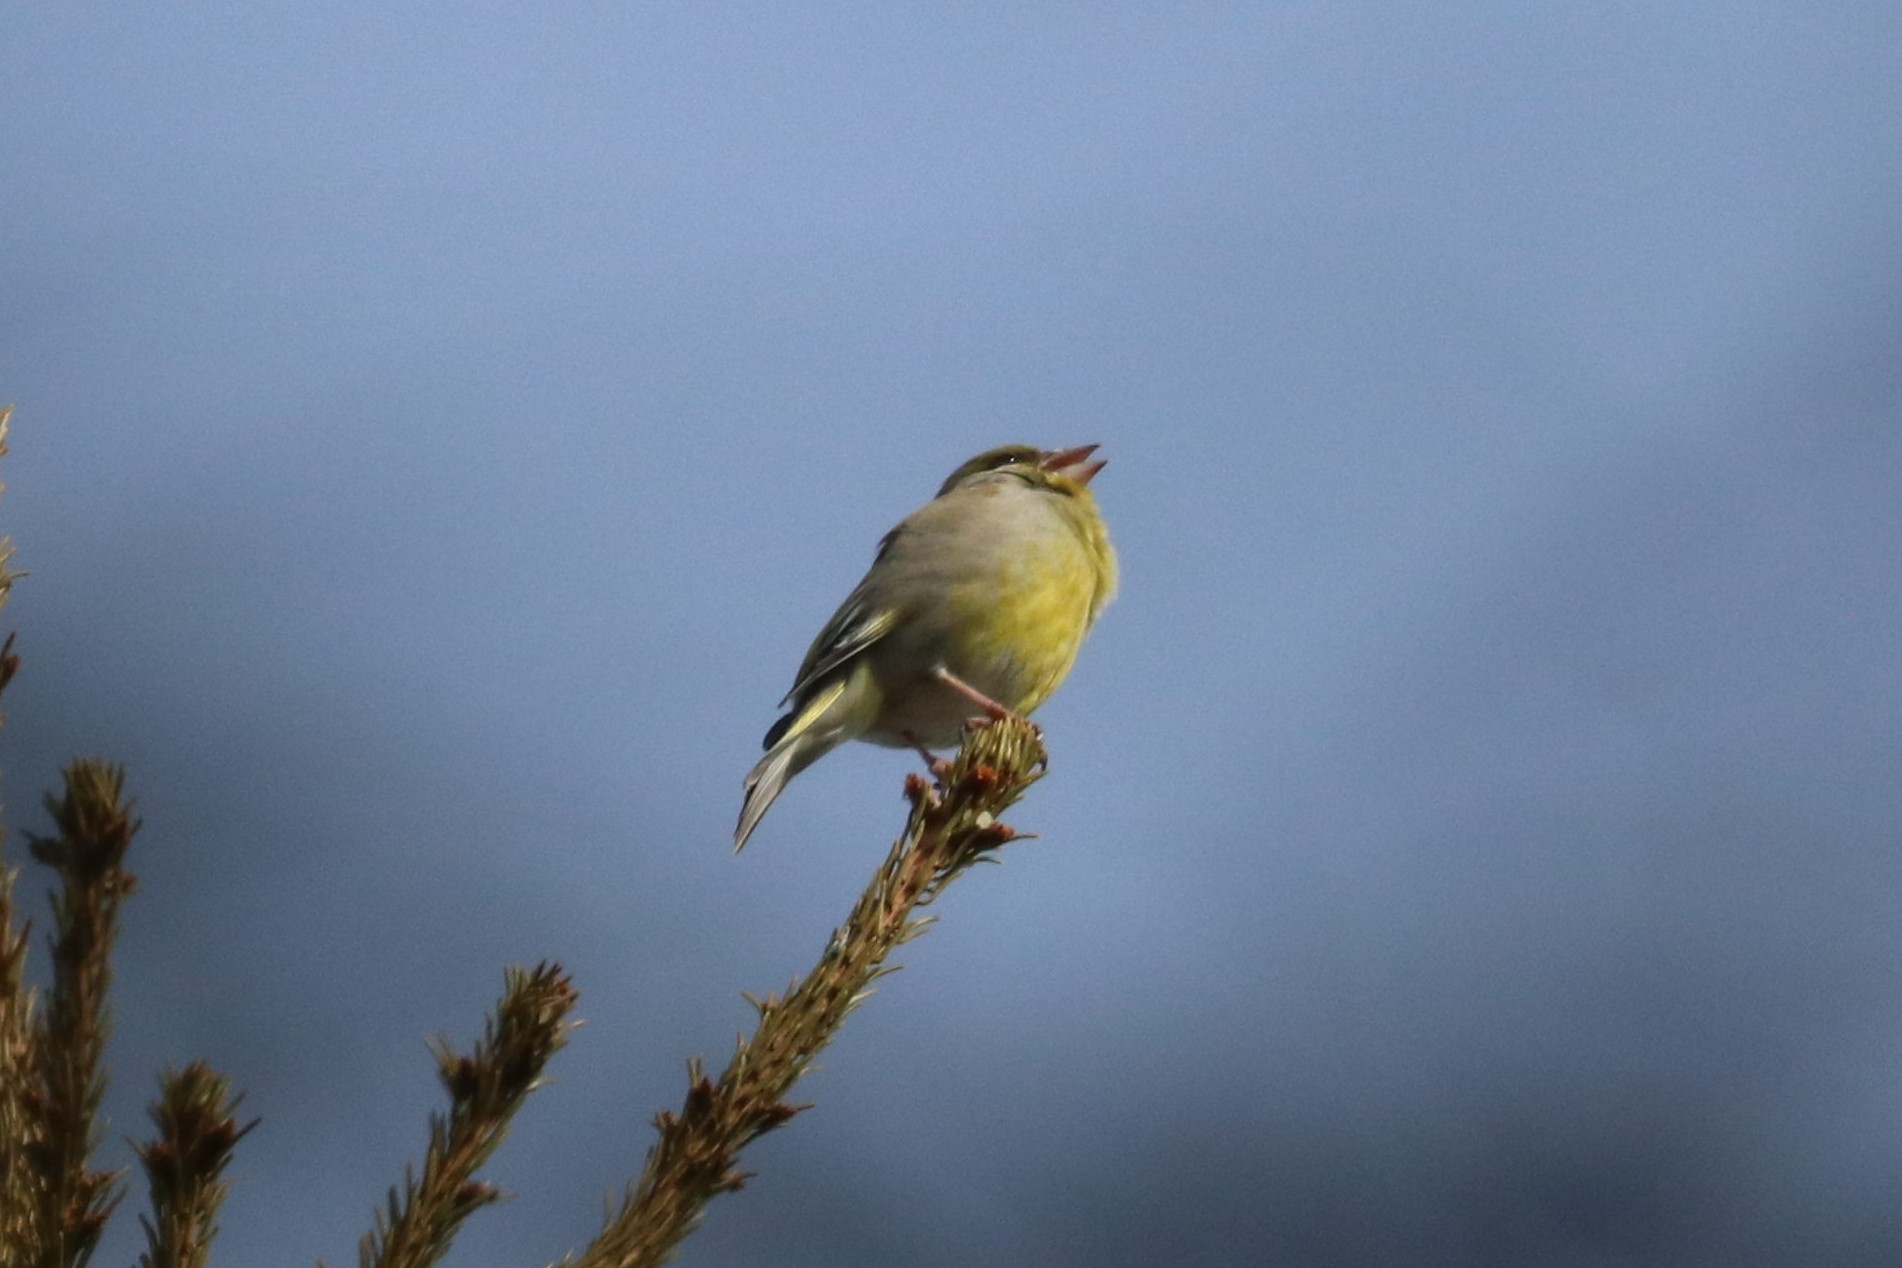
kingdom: Plantae
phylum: Tracheophyta
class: Liliopsida
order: Poales
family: Poaceae
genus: Chloris
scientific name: Chloris chloris
